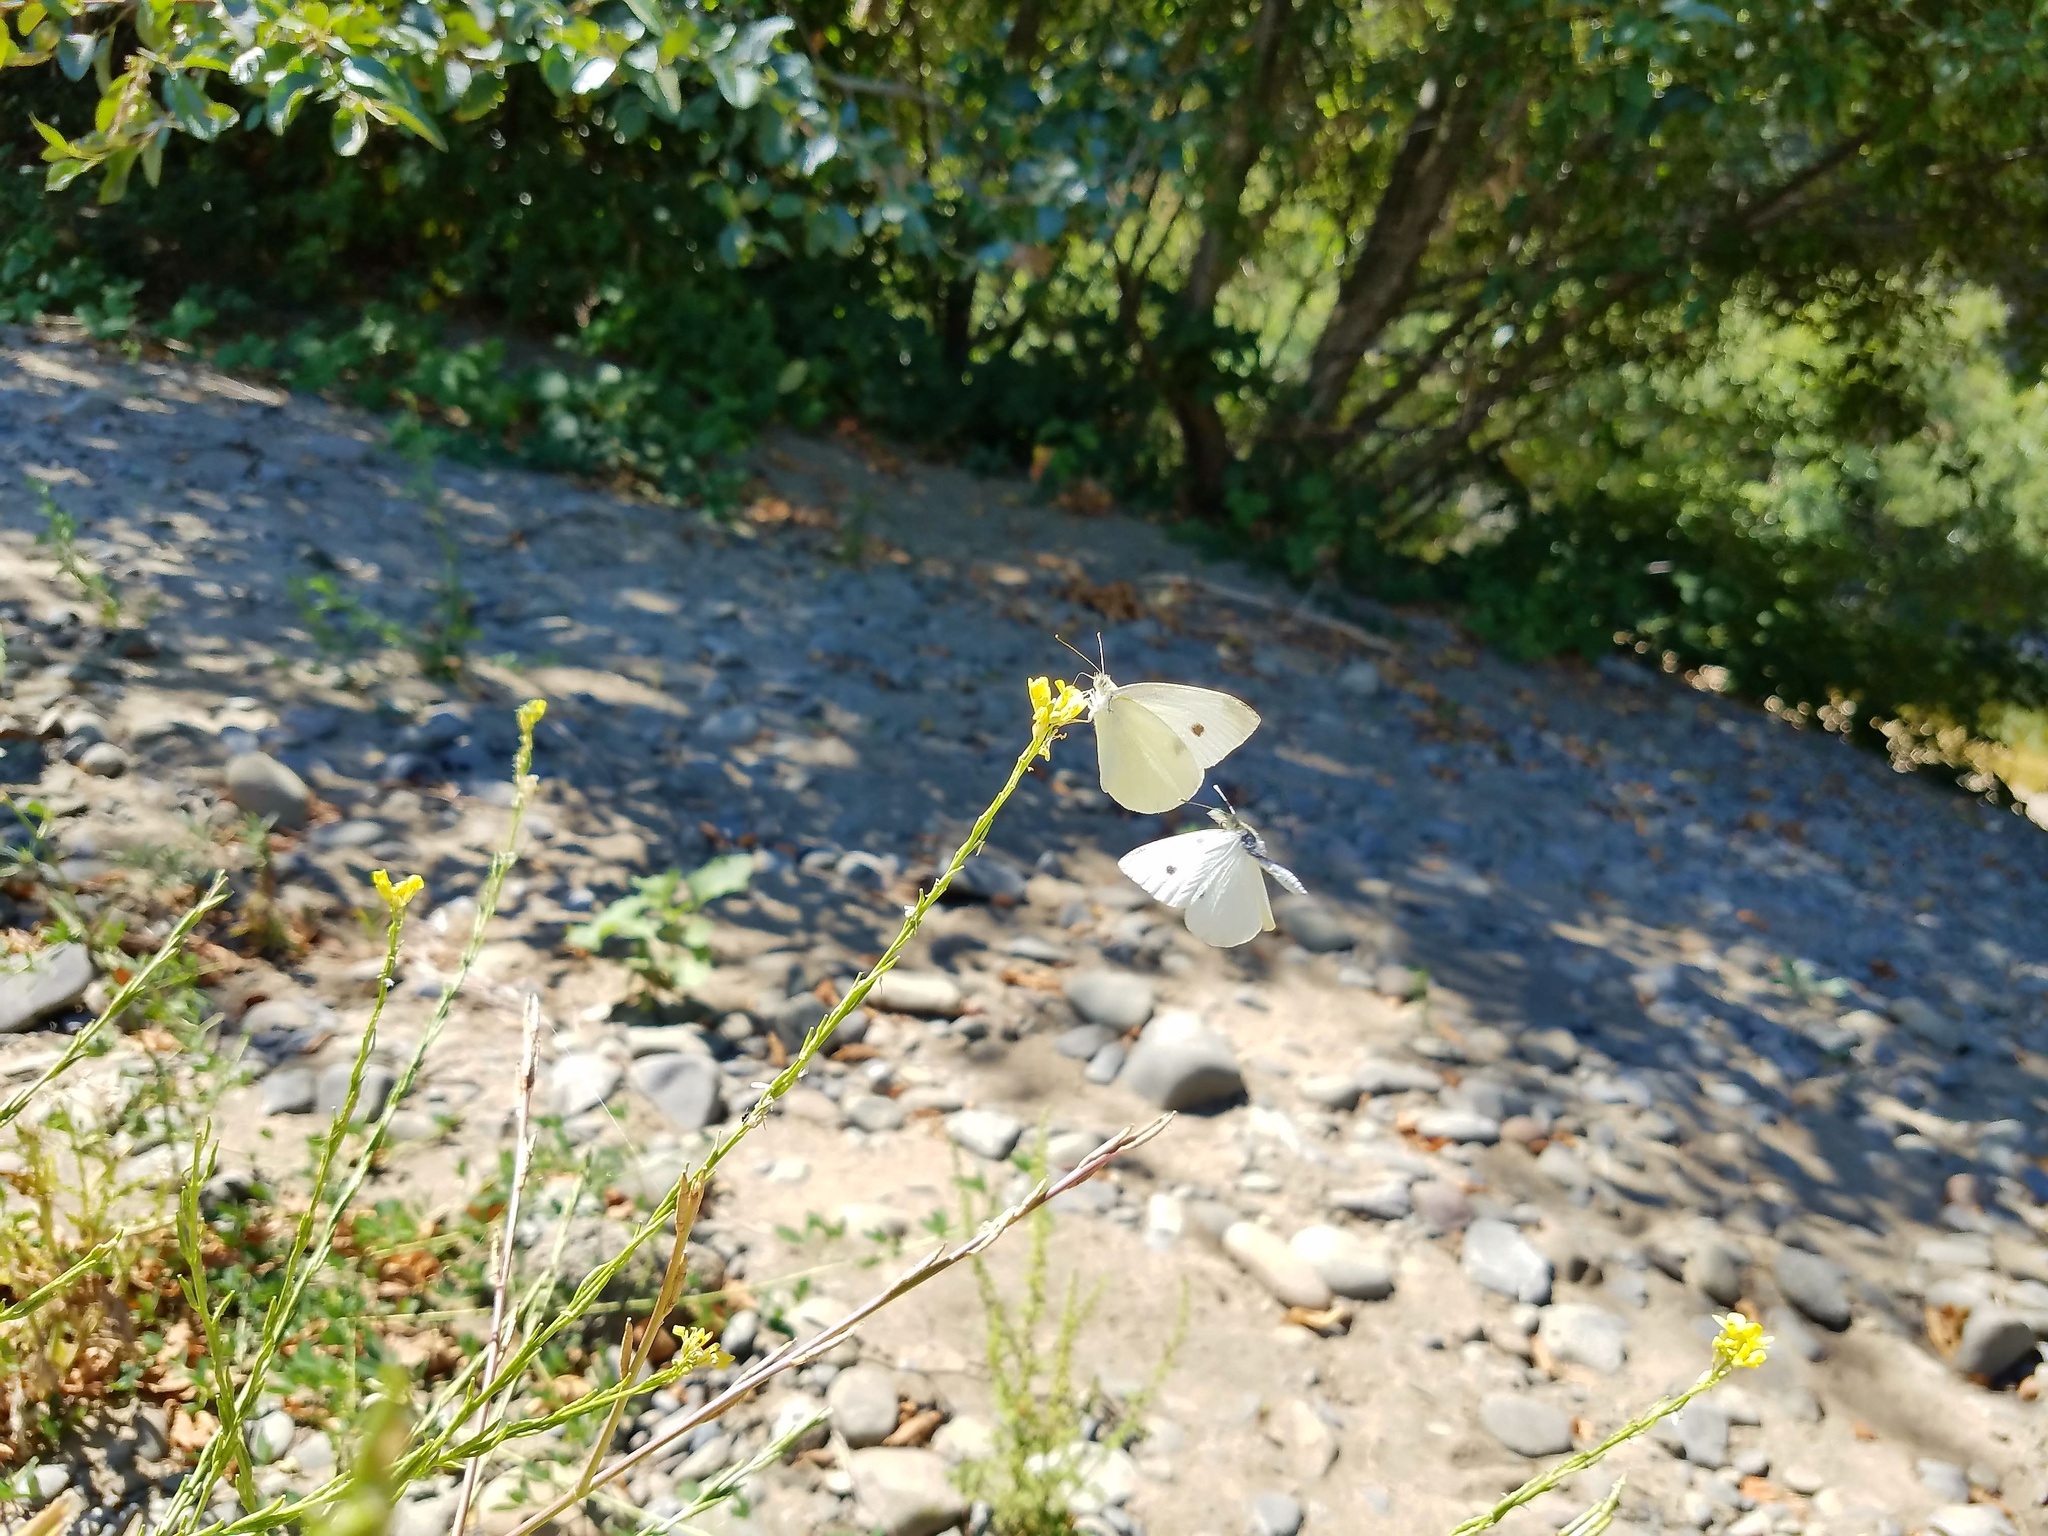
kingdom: Animalia
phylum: Arthropoda
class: Insecta
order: Lepidoptera
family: Pieridae
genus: Pieris
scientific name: Pieris rapae
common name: Small white
